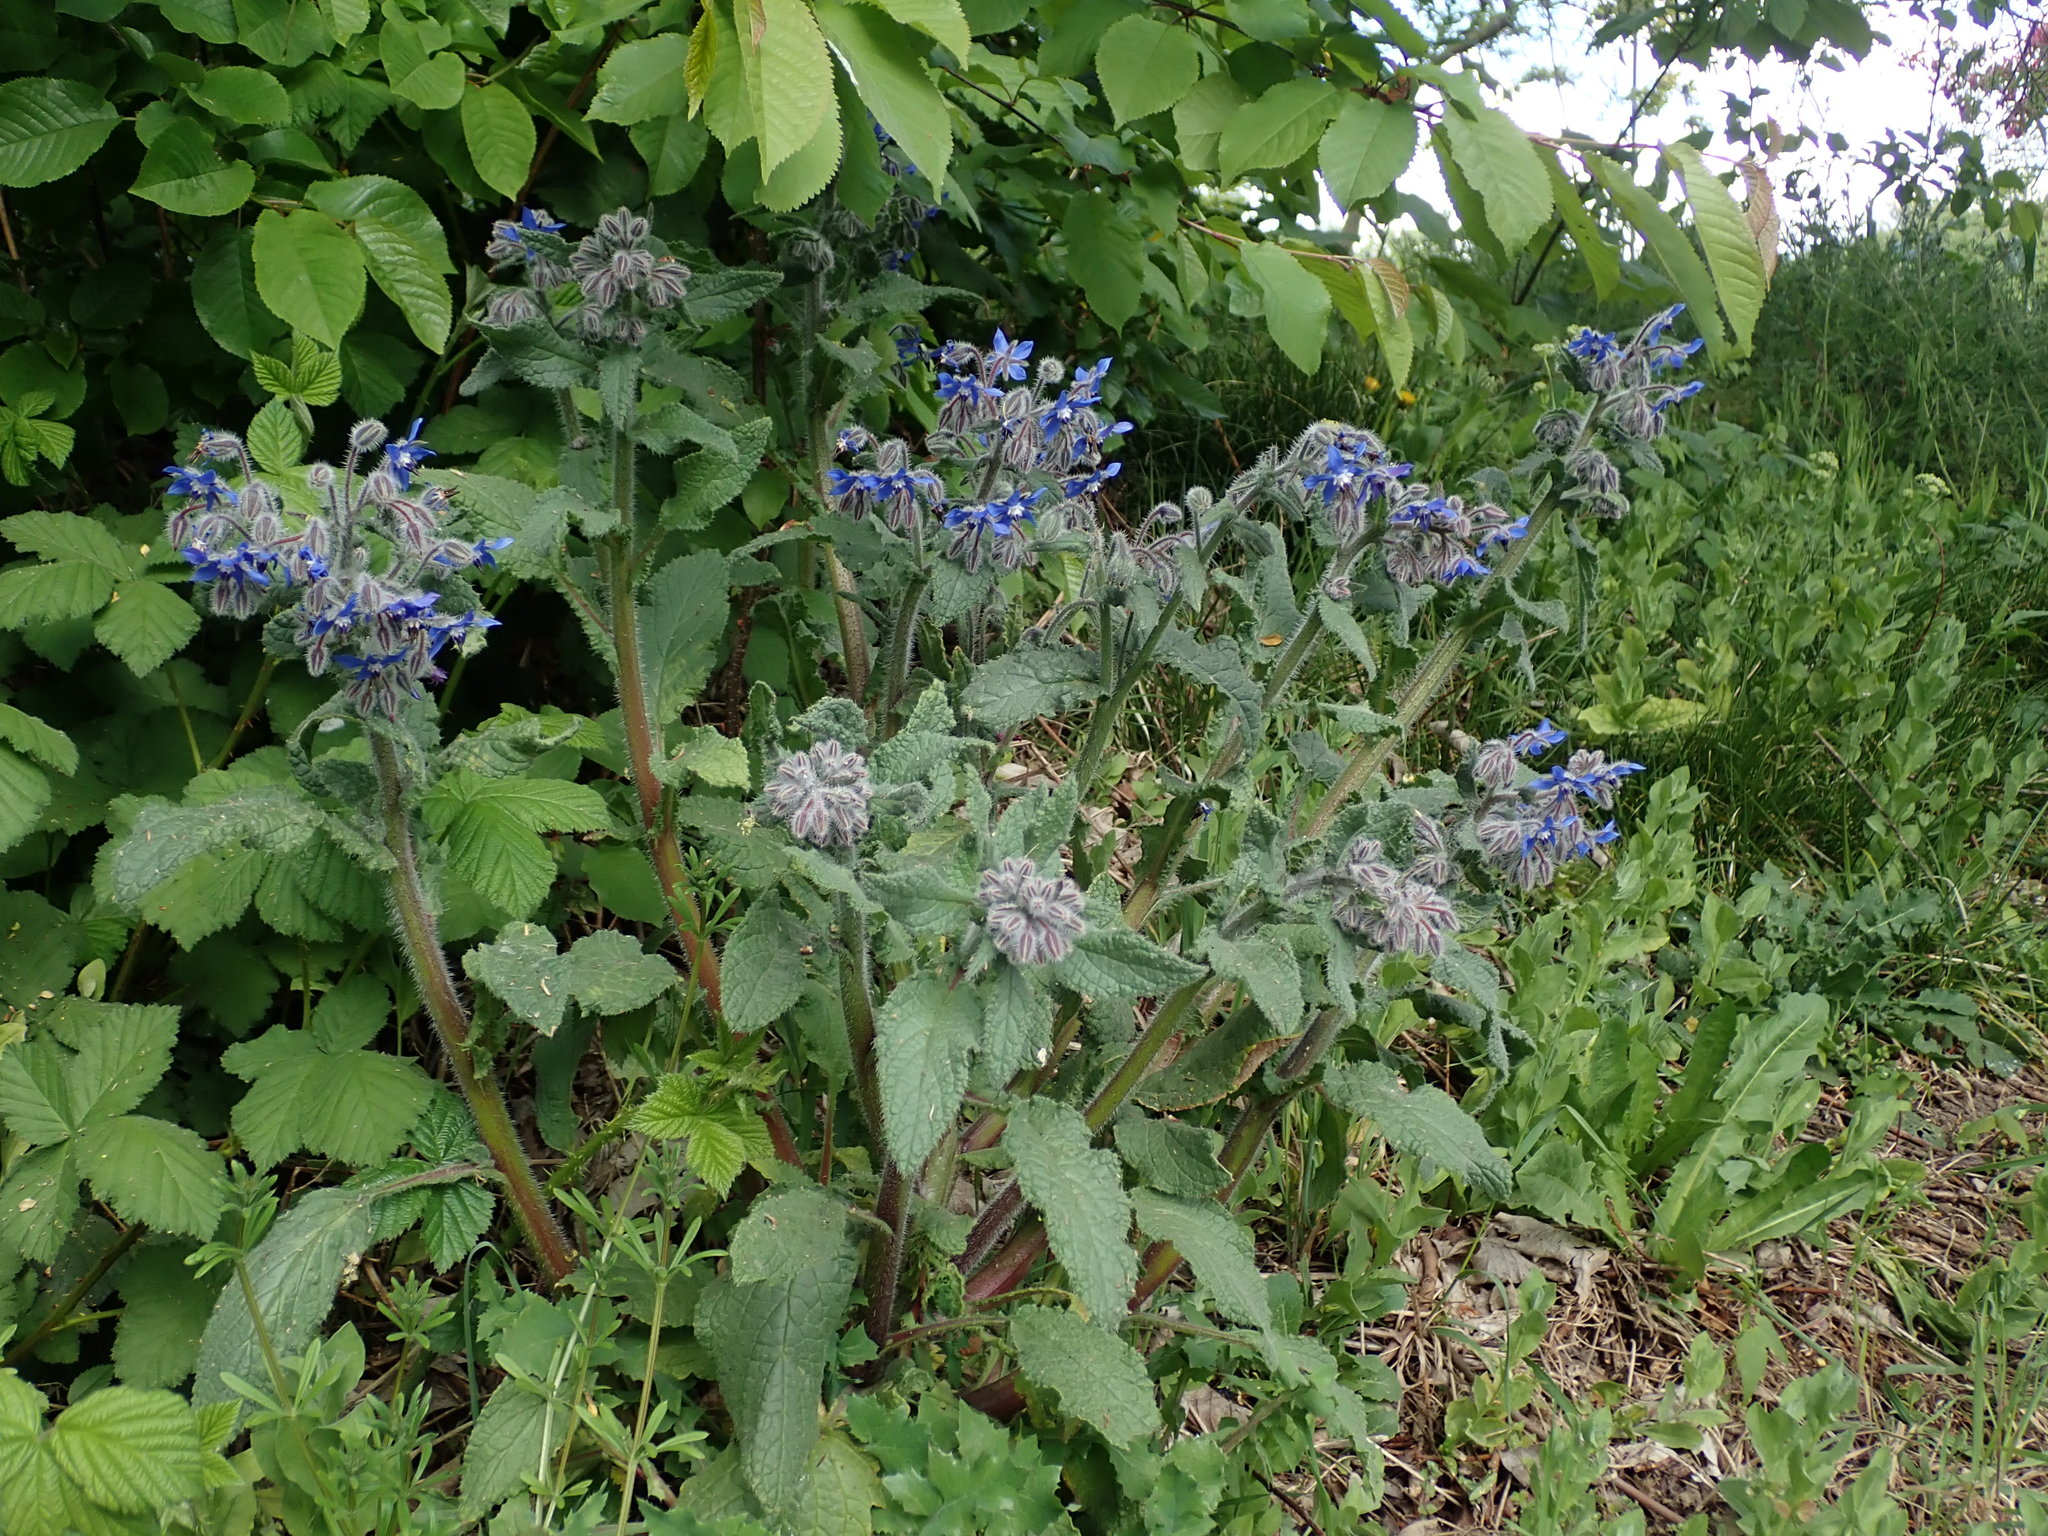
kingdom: Plantae
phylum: Tracheophyta
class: Magnoliopsida
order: Boraginales
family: Boraginaceae
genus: Borago
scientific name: Borago officinalis
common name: Borage
